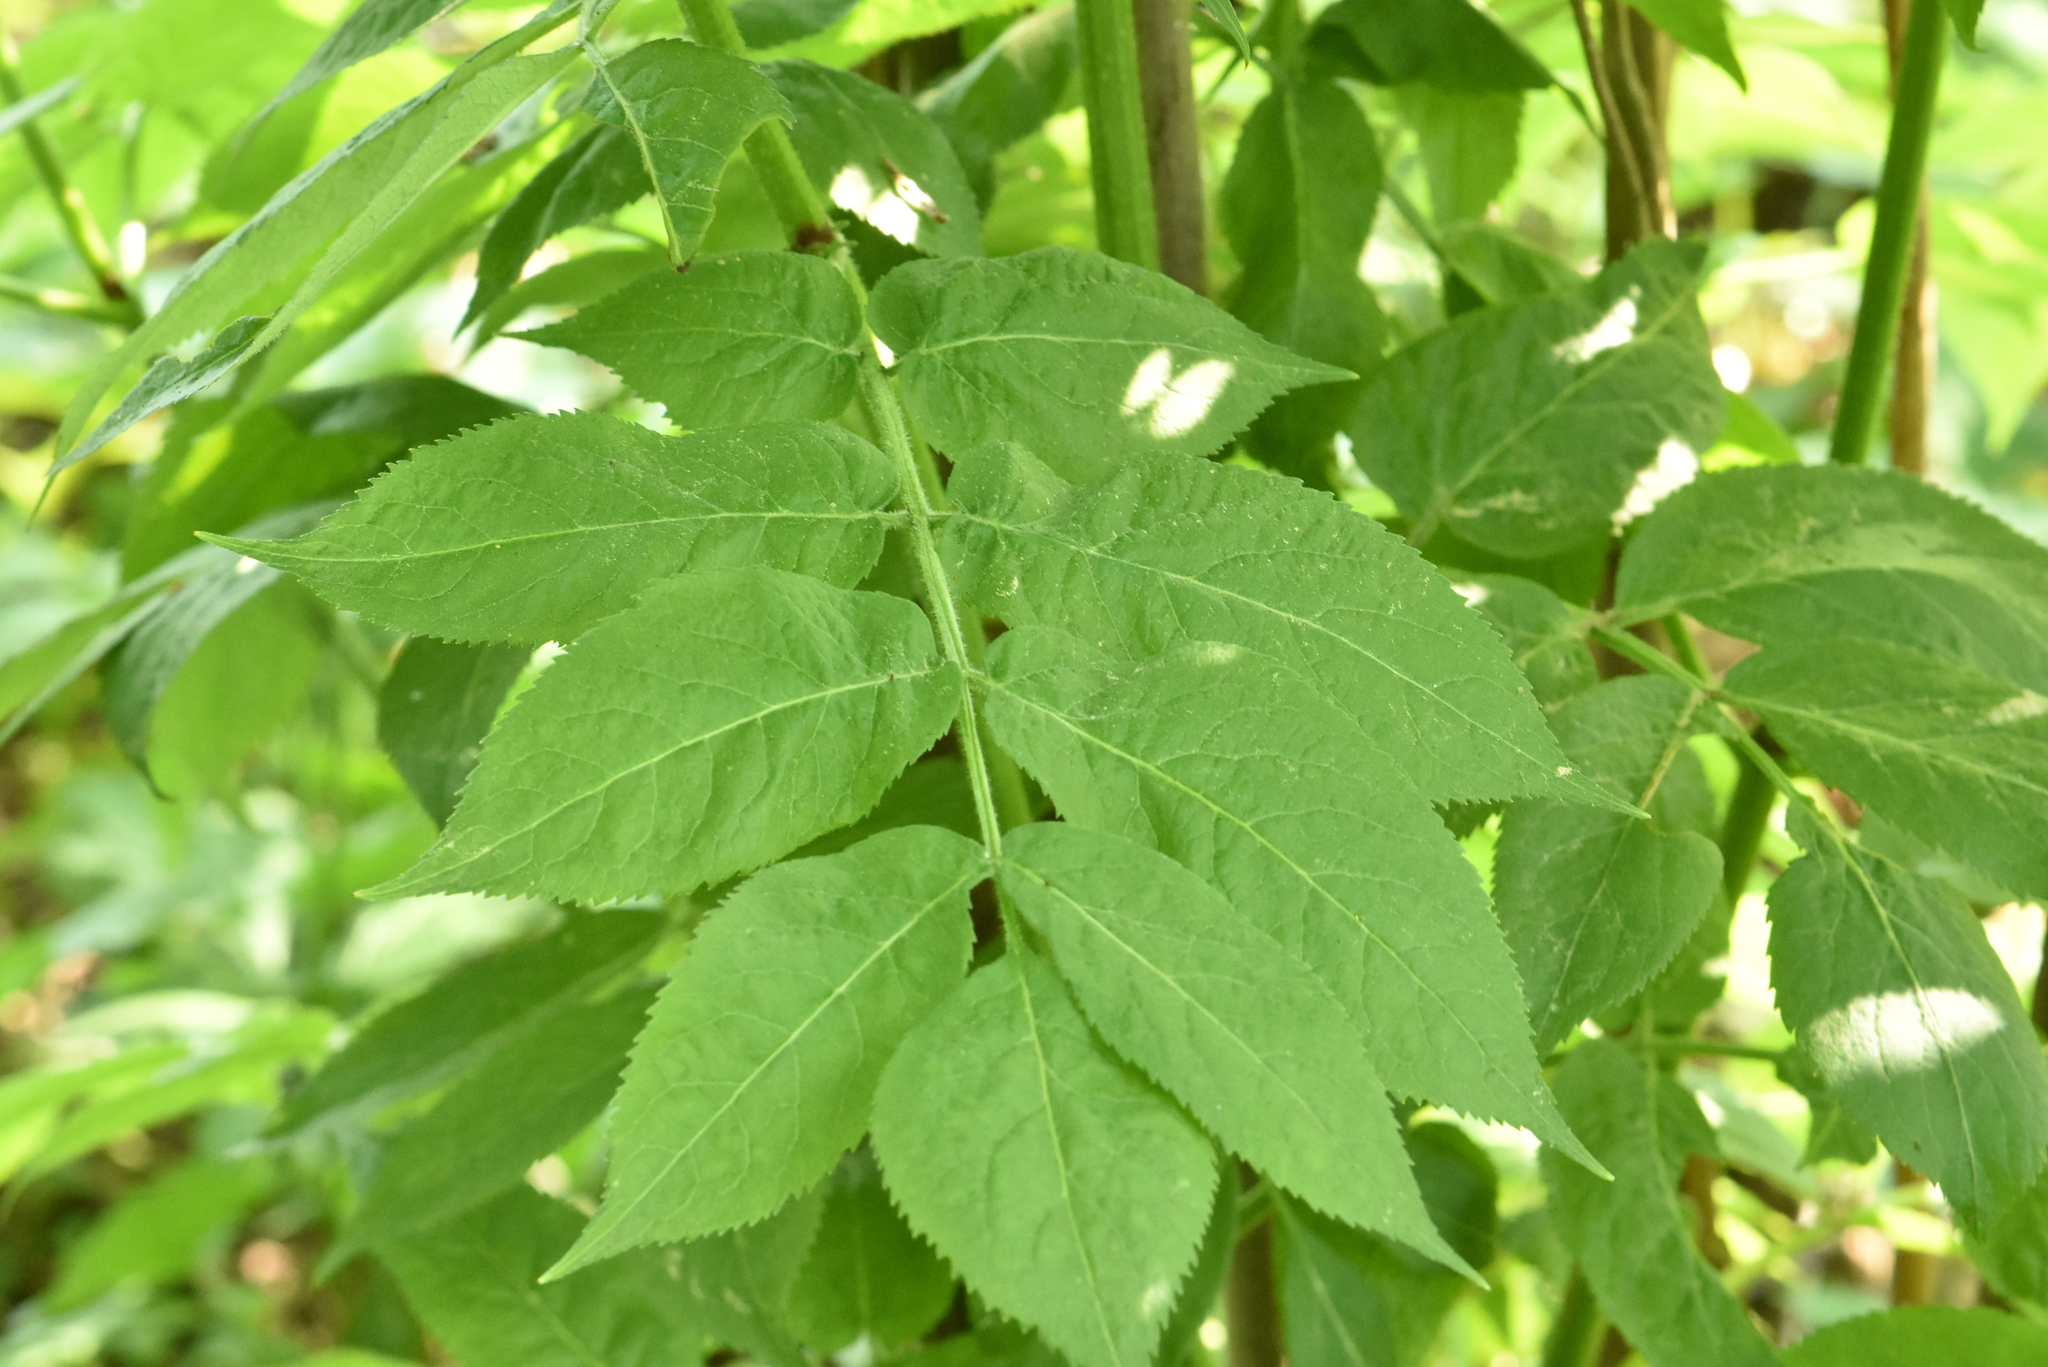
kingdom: Plantae
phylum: Tracheophyta
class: Magnoliopsida
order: Dipsacales
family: Viburnaceae
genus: Sambucus
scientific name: Sambucus racemosa
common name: Red-berried elder
